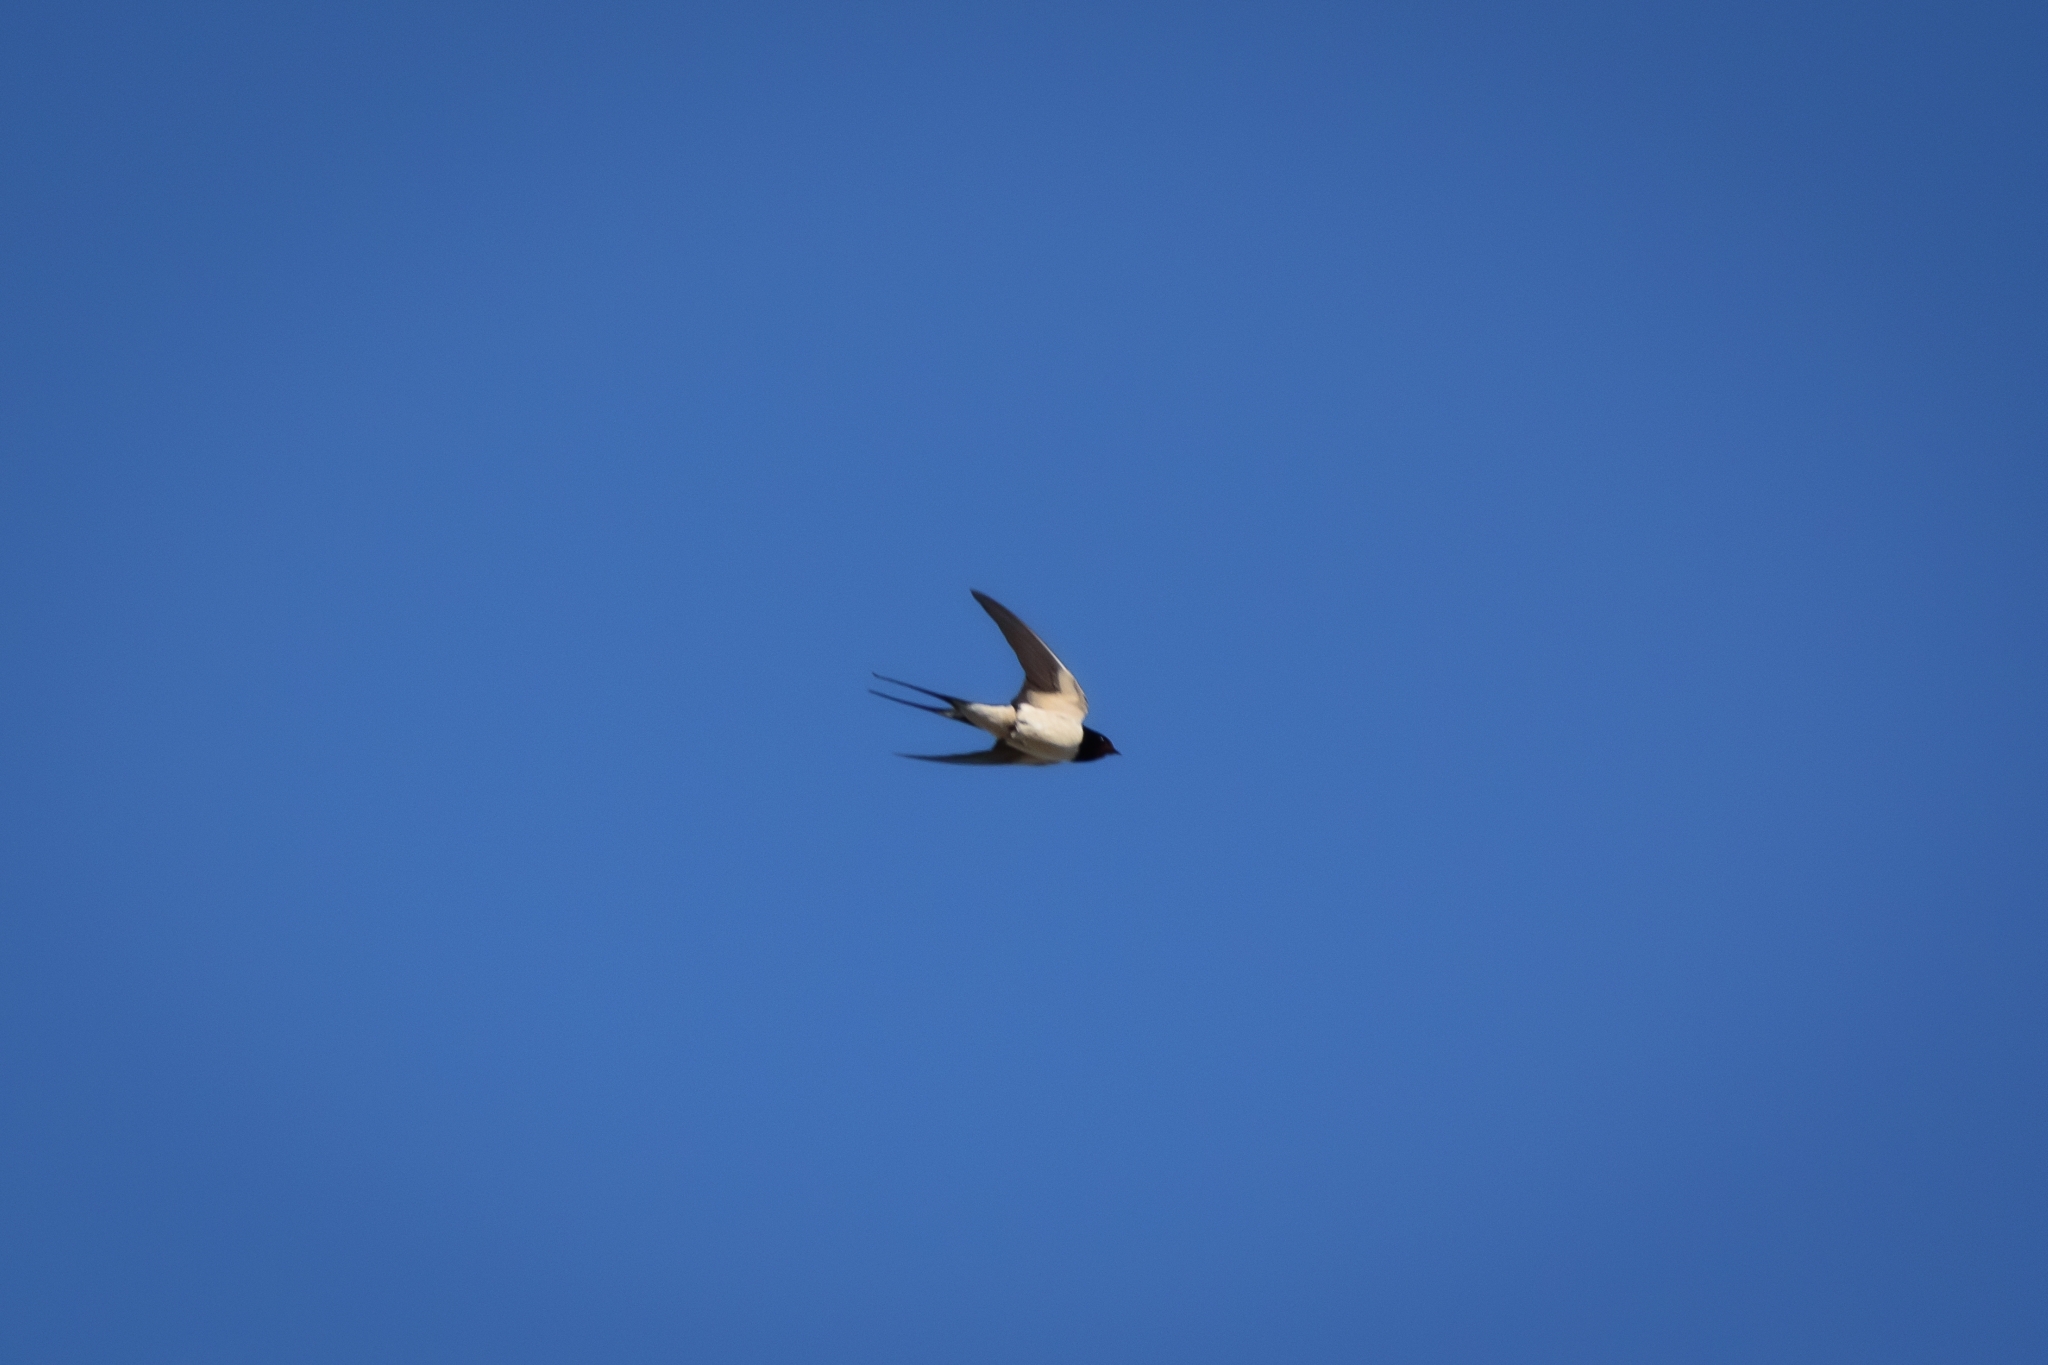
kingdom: Animalia
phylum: Chordata
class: Aves
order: Passeriformes
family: Hirundinidae
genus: Hirundo
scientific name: Hirundo rustica
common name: Barn swallow
